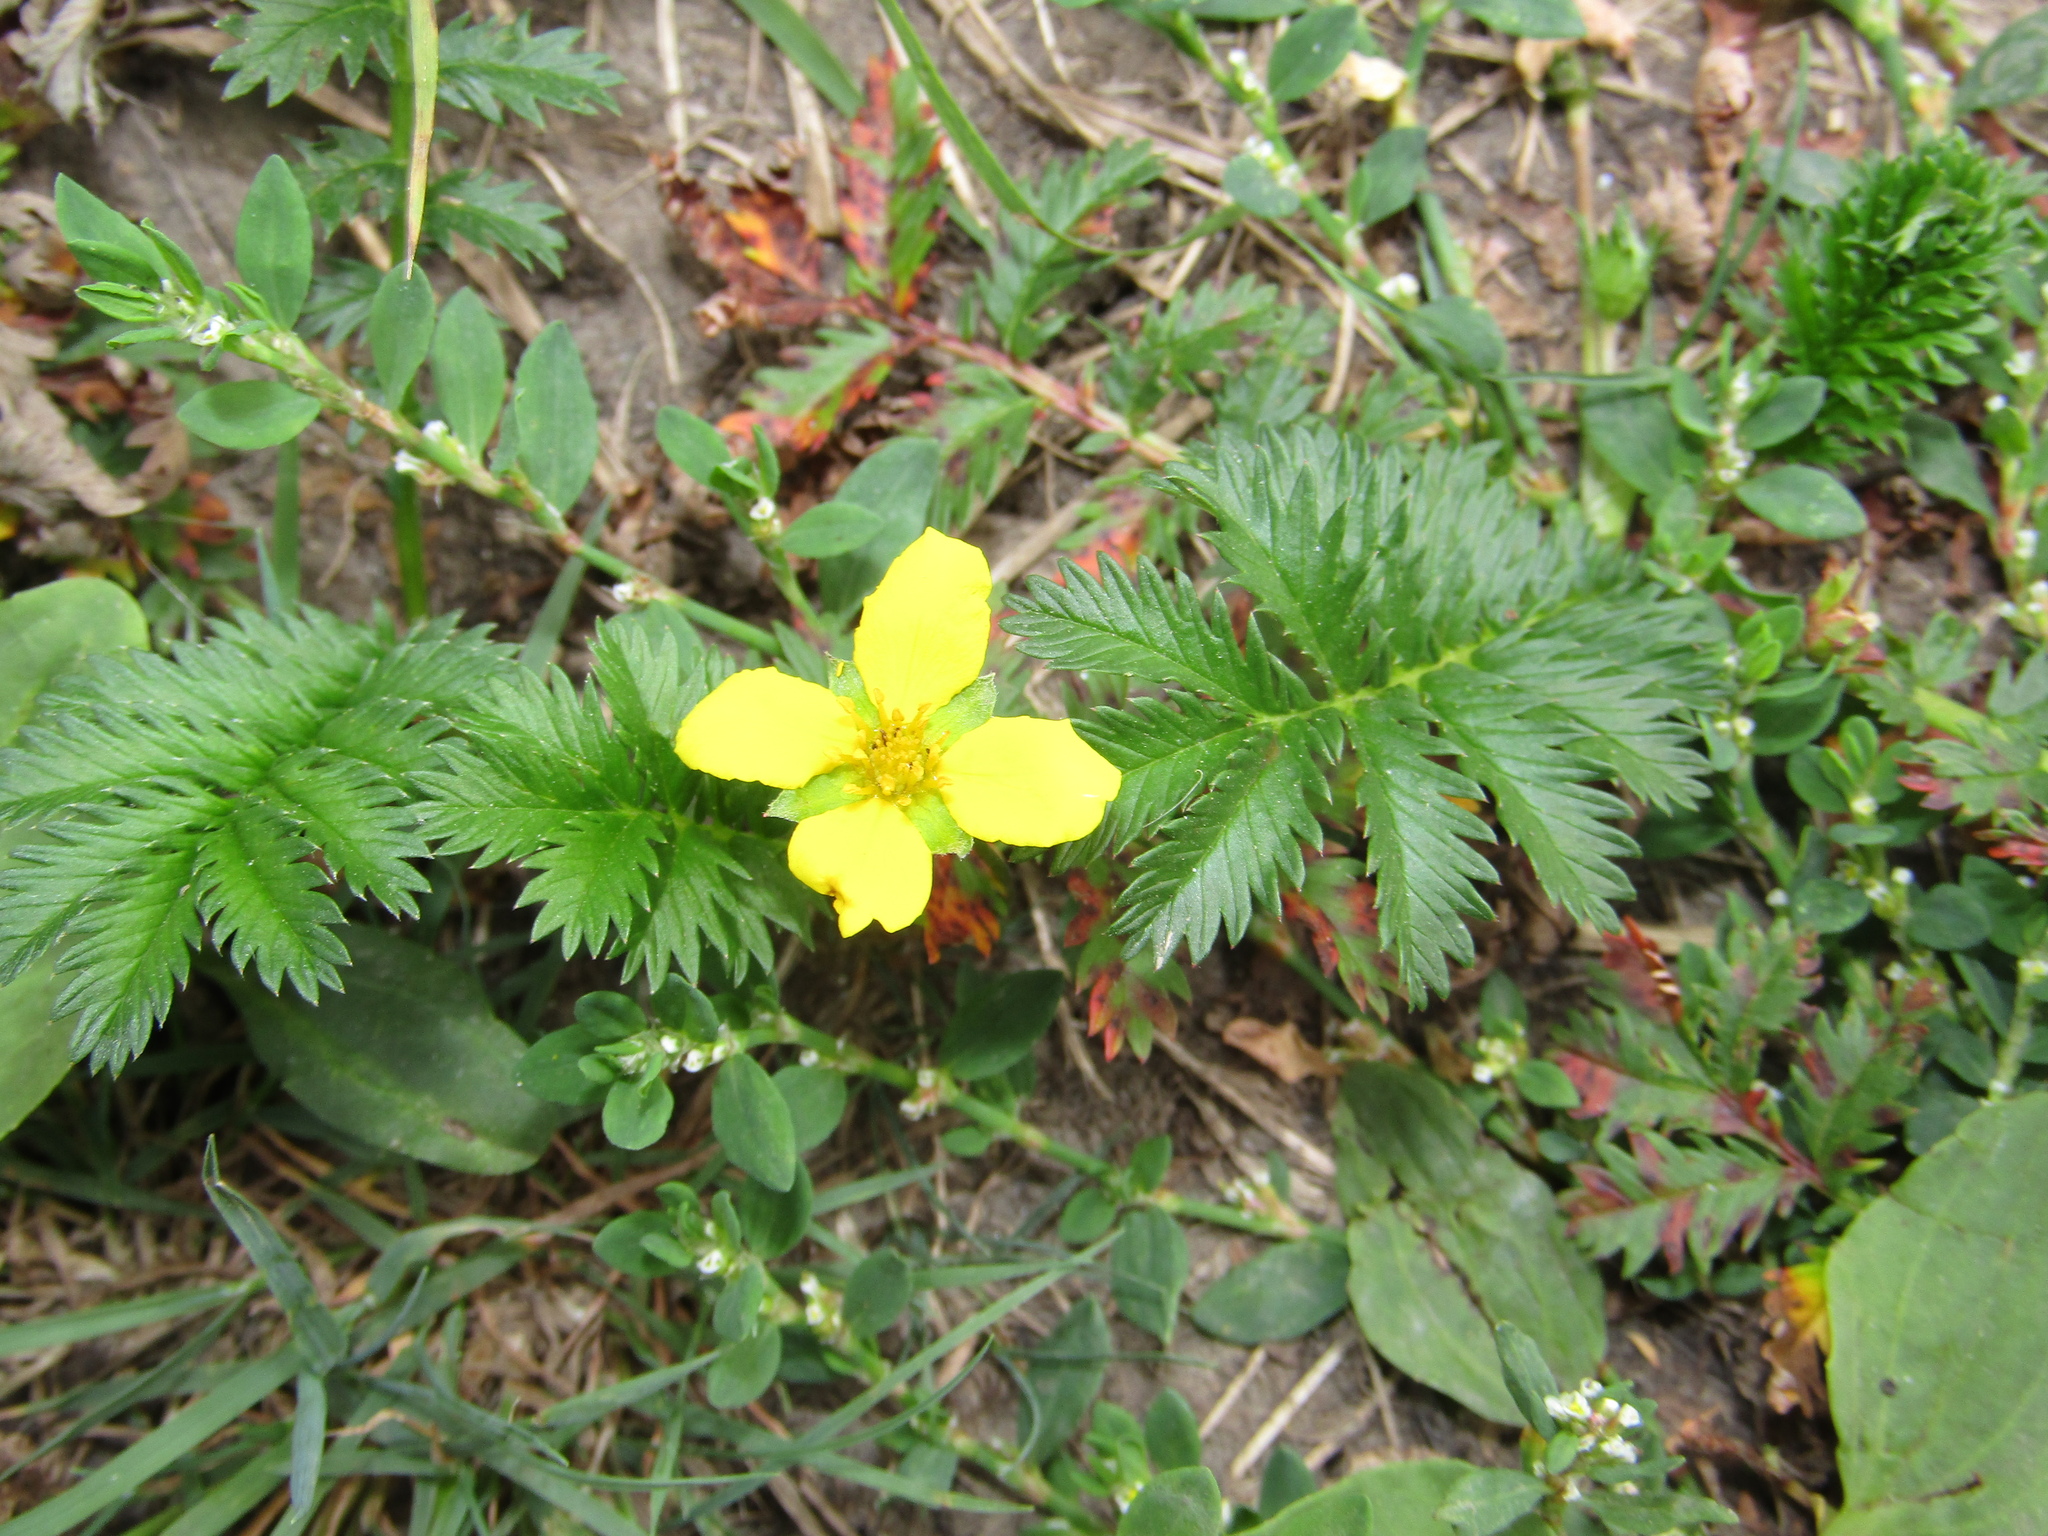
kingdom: Plantae
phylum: Tracheophyta
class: Magnoliopsida
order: Rosales
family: Rosaceae
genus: Argentina
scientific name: Argentina anserina
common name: Common silverweed
